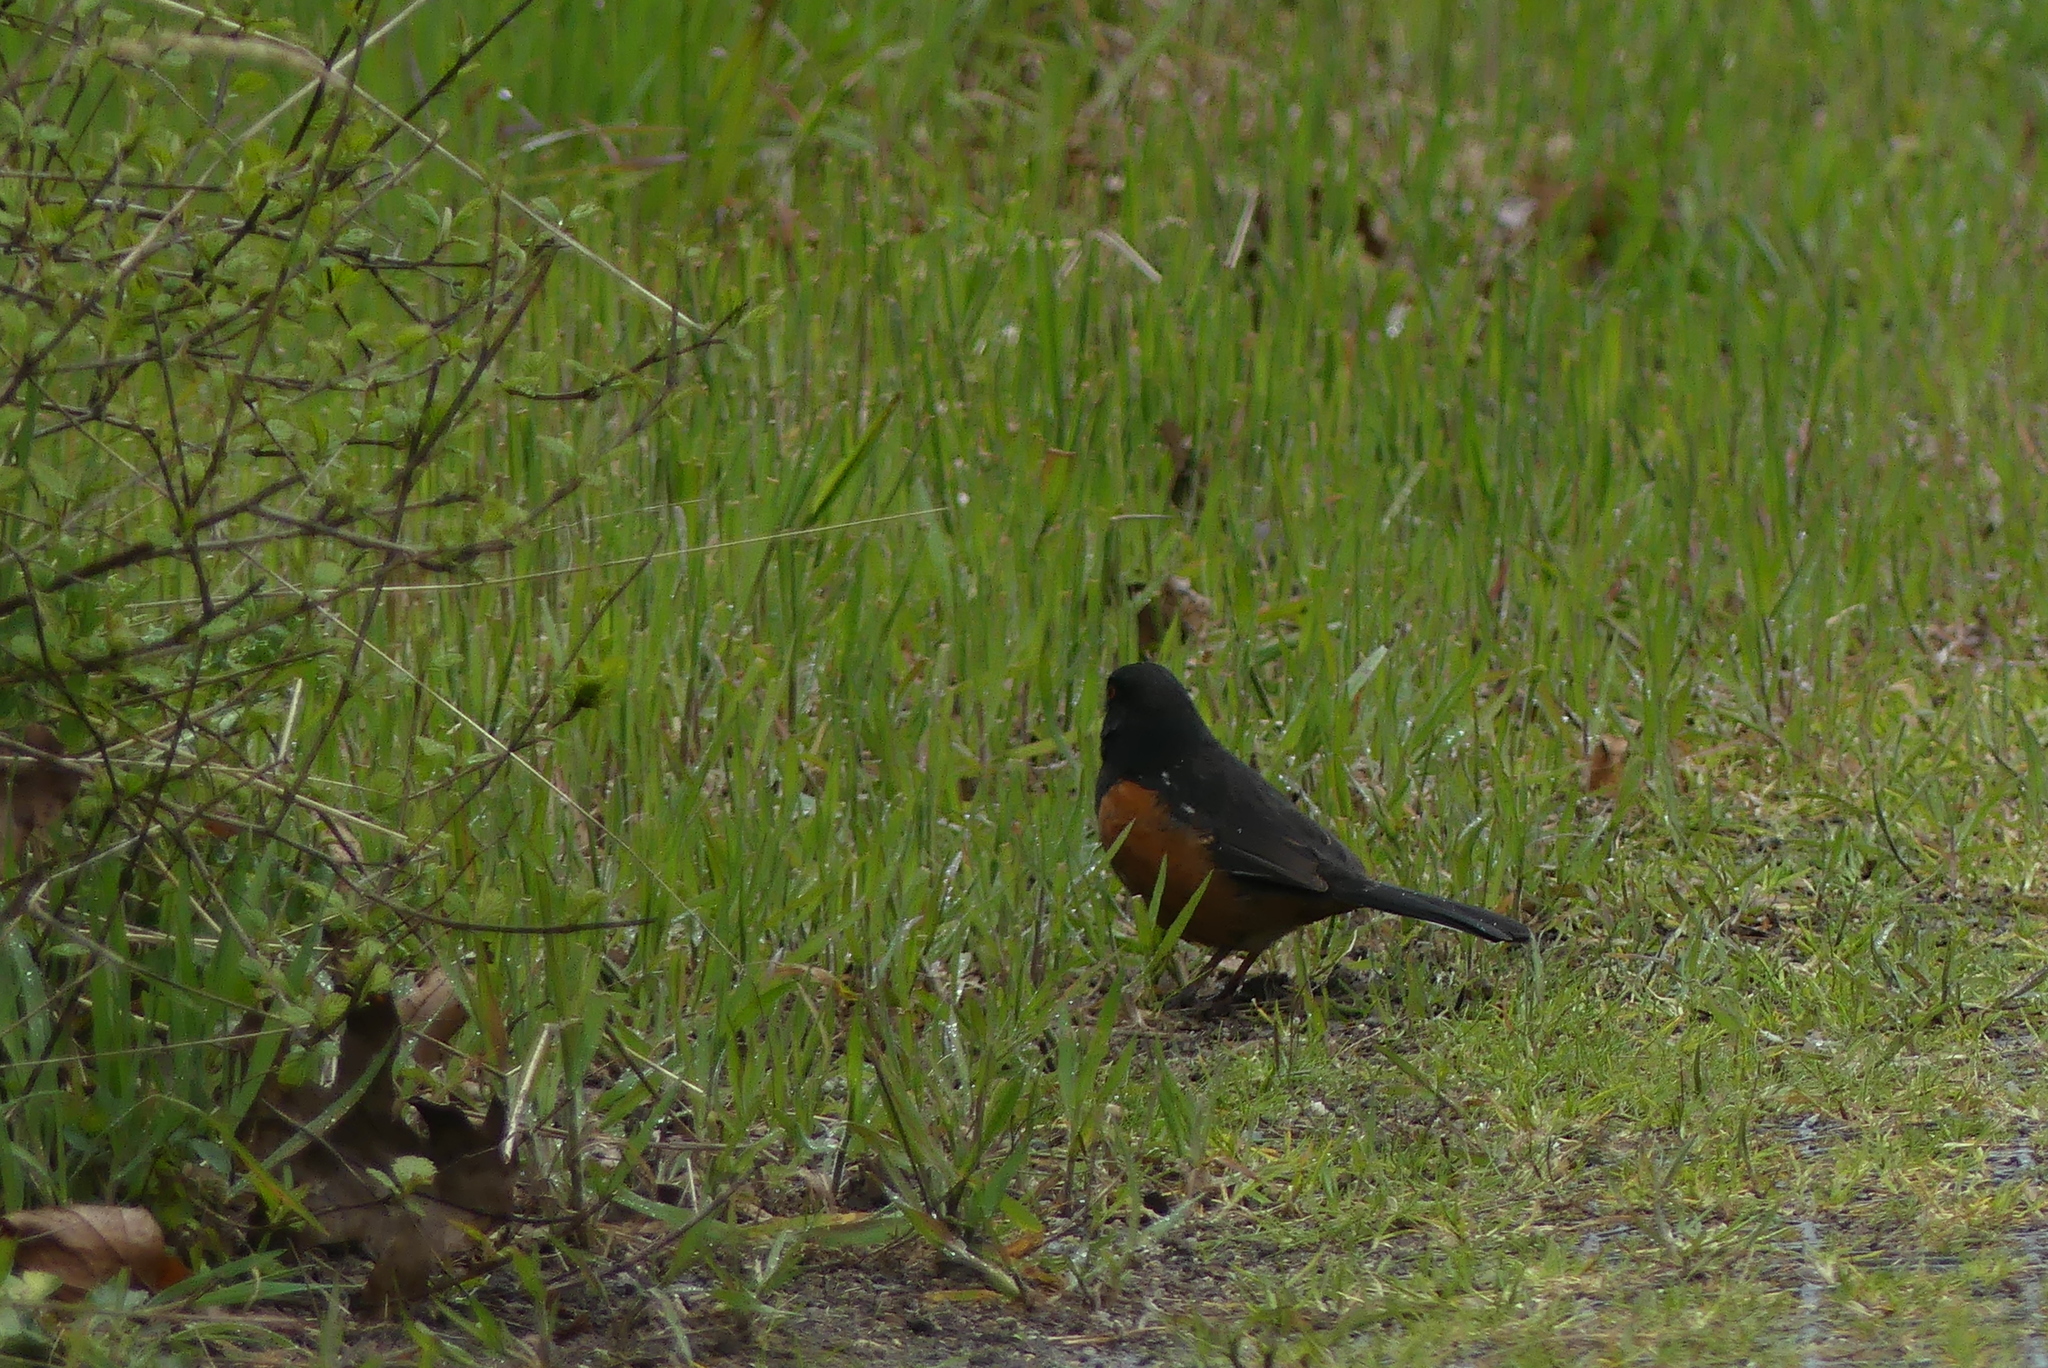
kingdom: Animalia
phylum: Chordata
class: Aves
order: Passeriformes
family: Passerellidae
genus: Pipilo
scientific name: Pipilo maculatus
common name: Spotted towhee
